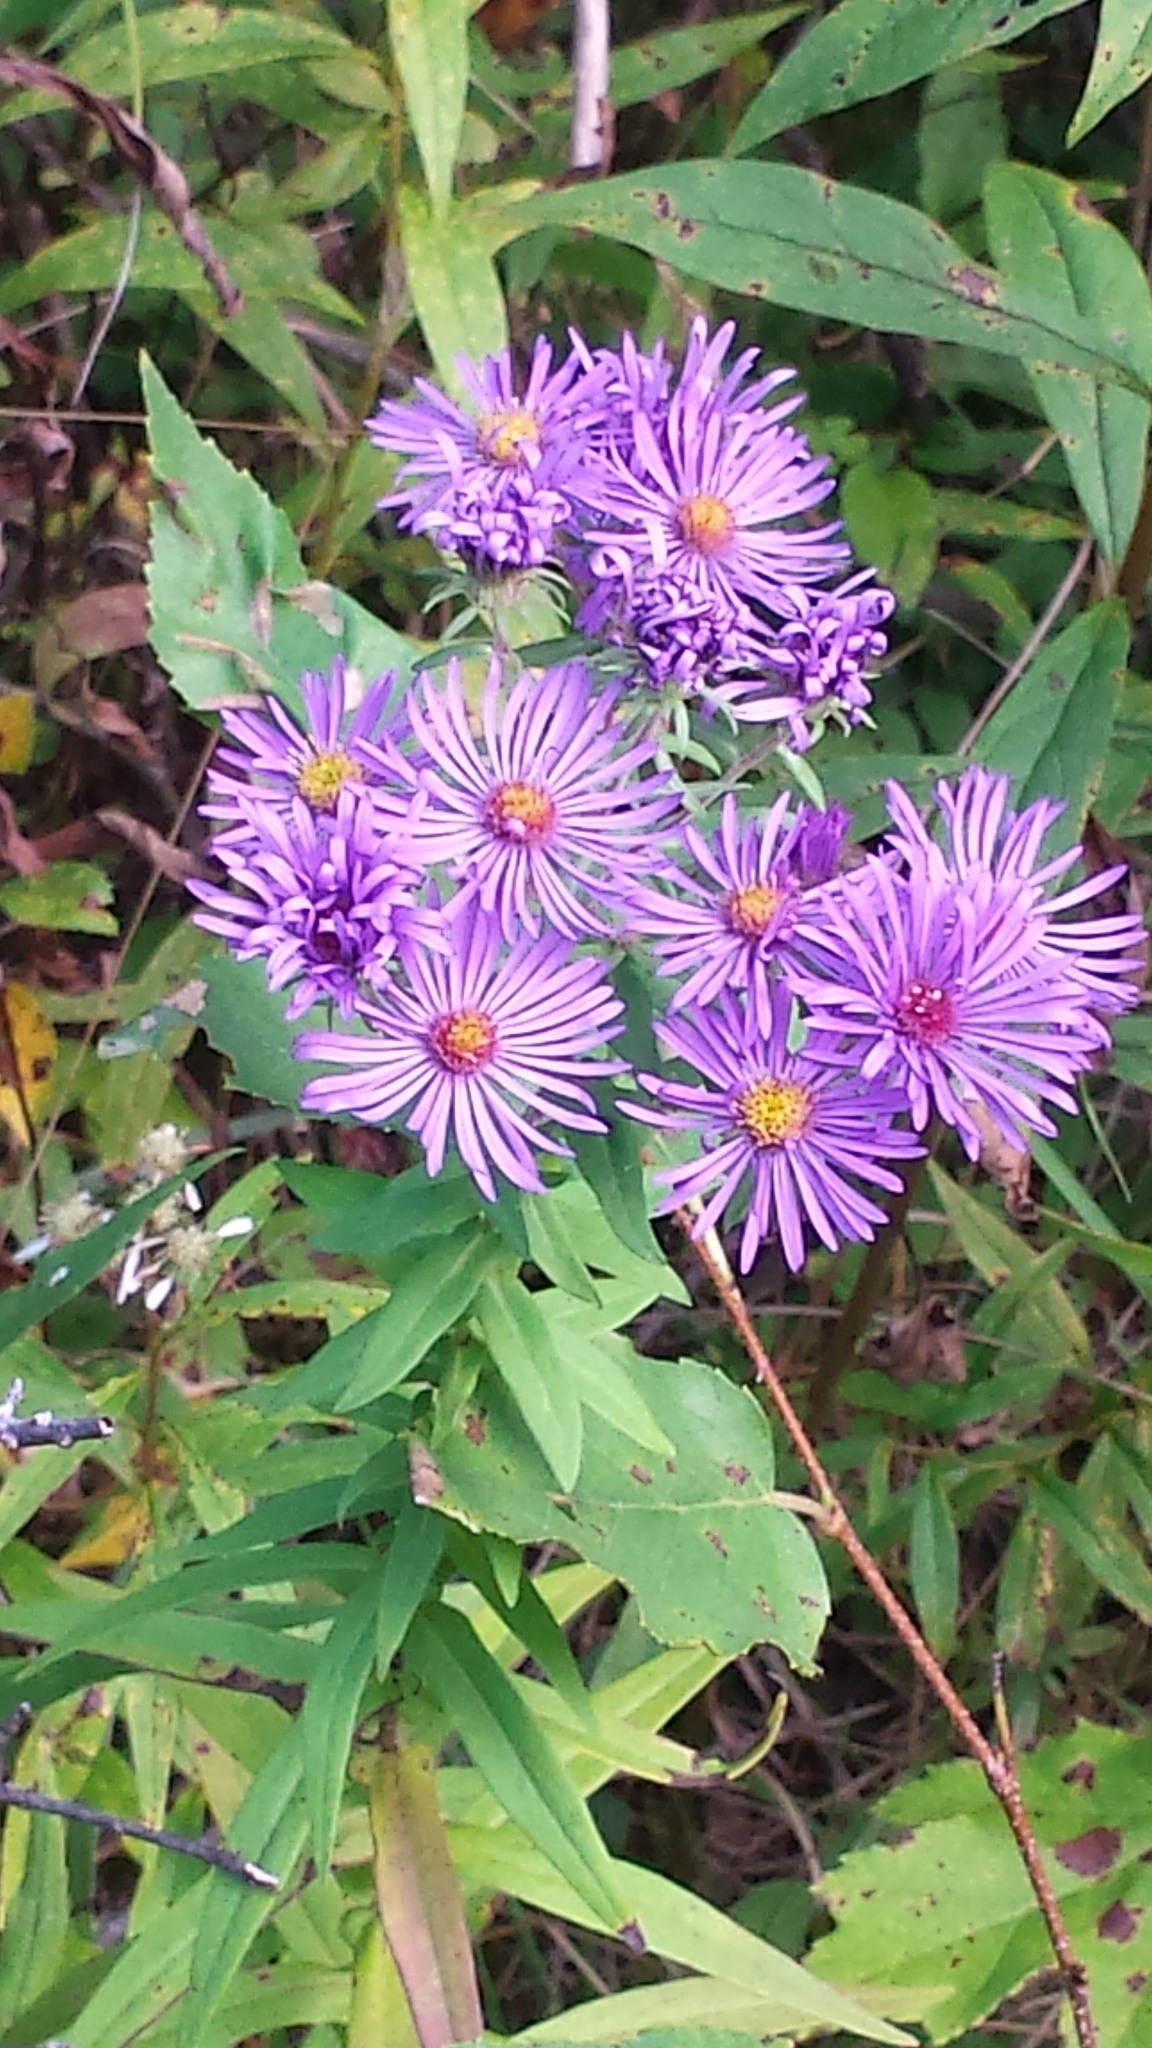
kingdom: Plantae
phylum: Tracheophyta
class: Magnoliopsida
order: Asterales
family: Asteraceae
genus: Symphyotrichum
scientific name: Symphyotrichum novae-angliae
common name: Michaelmas daisy
